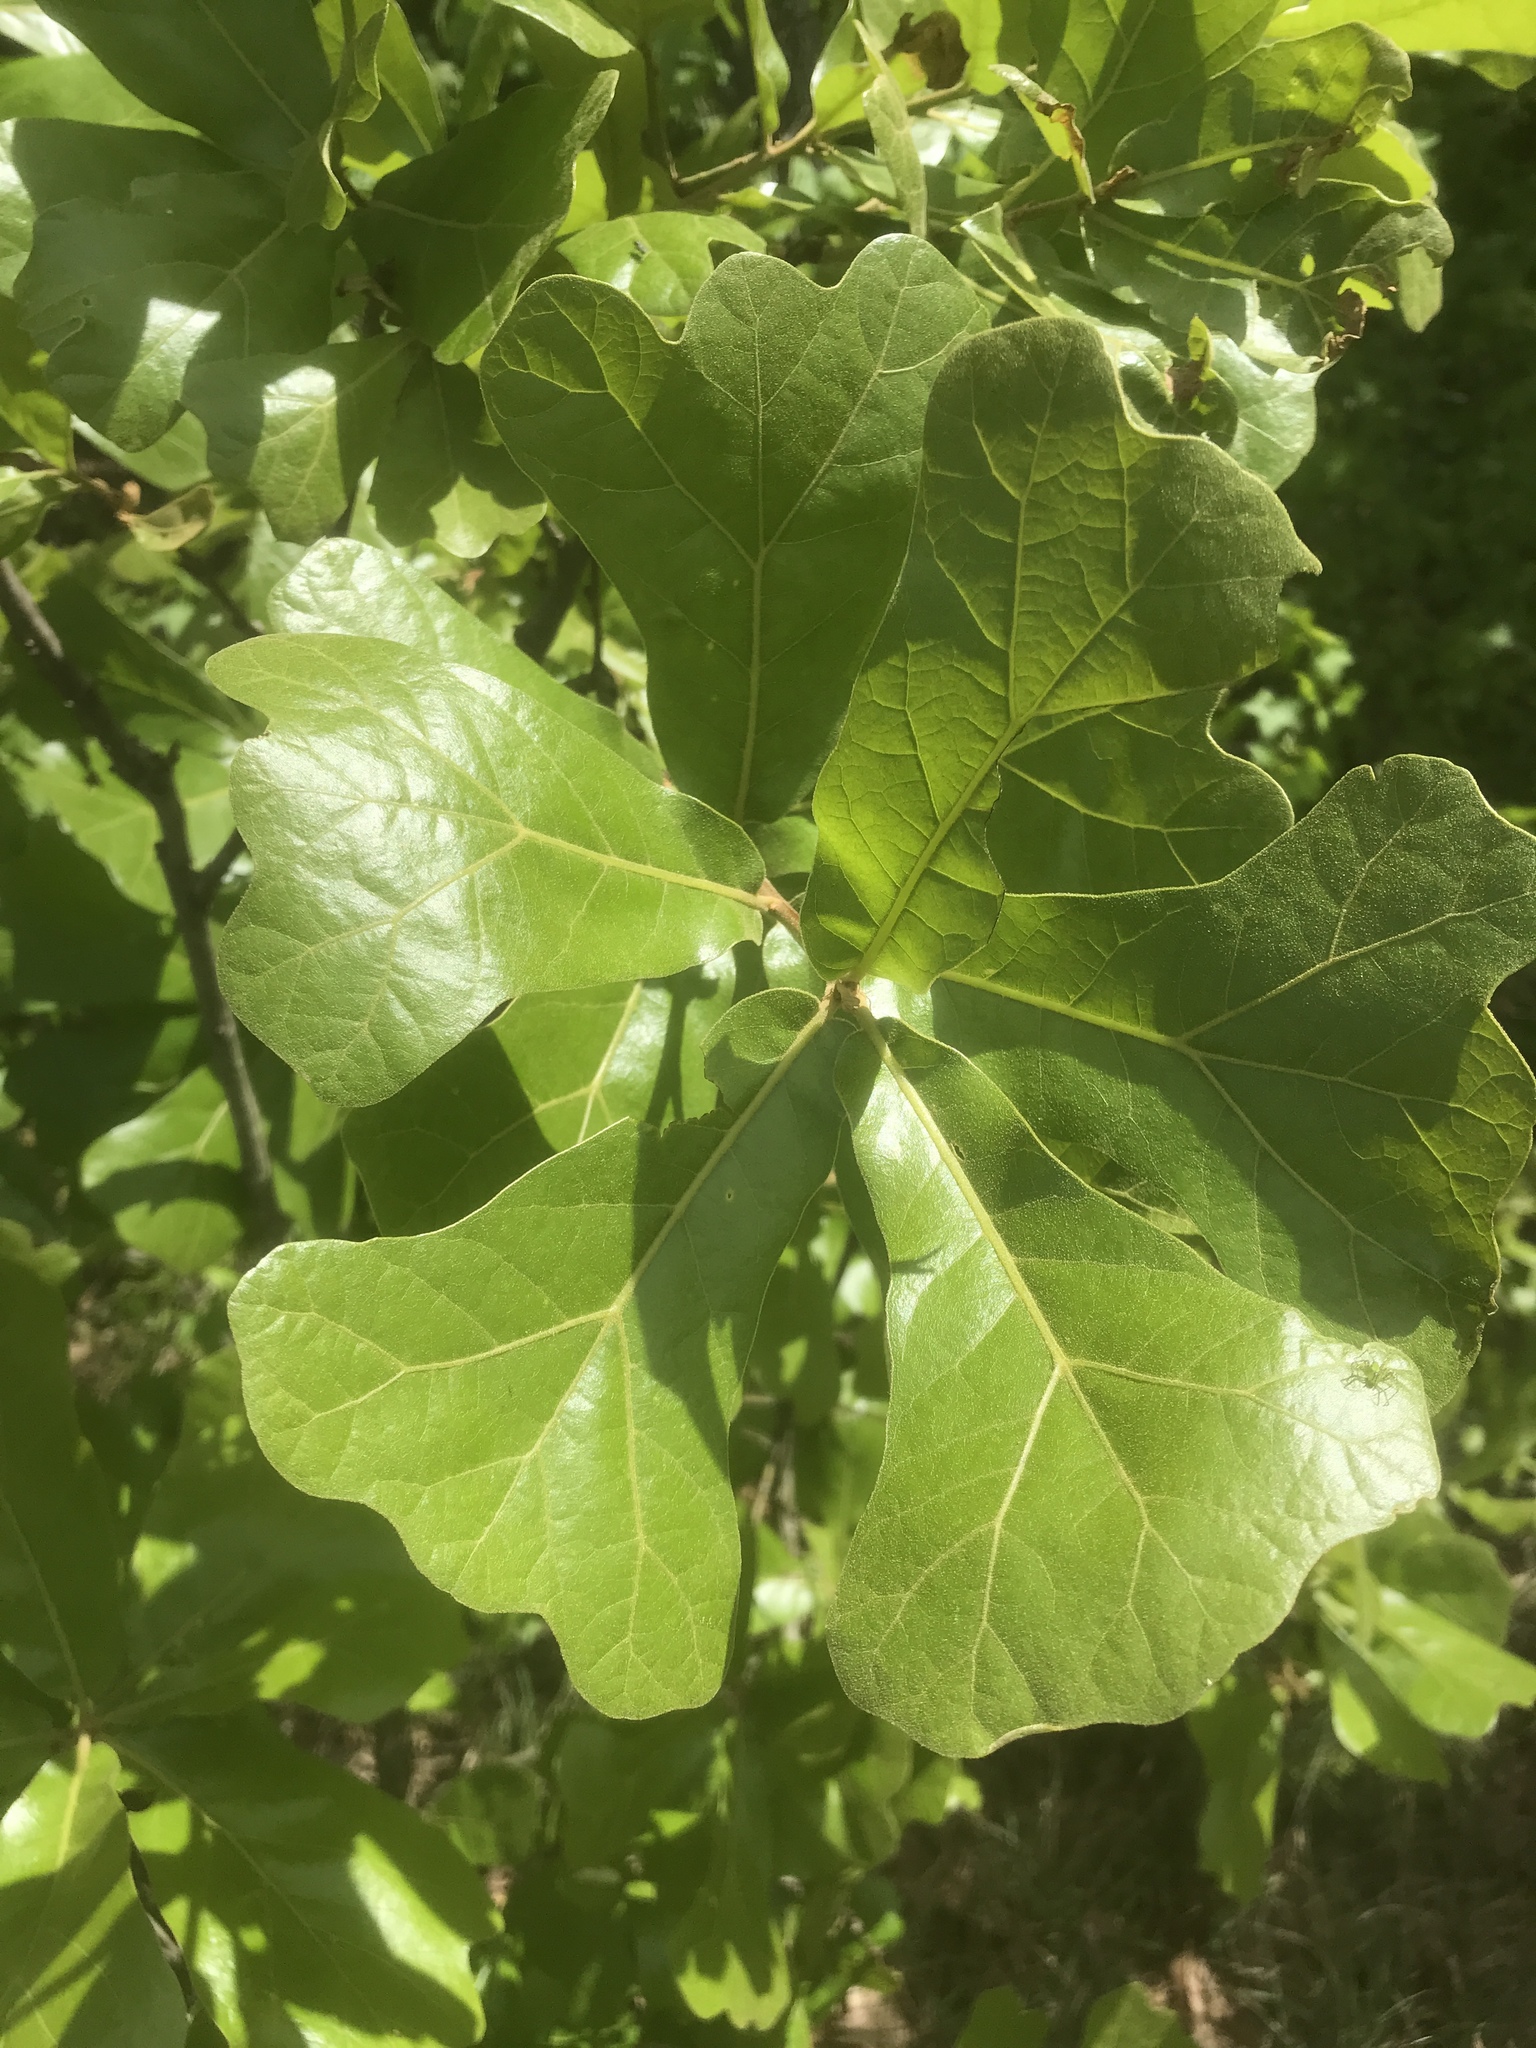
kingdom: Plantae
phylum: Tracheophyta
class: Magnoliopsida
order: Fagales
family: Fagaceae
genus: Quercus
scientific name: Quercus marilandica
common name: Blackjack oak
